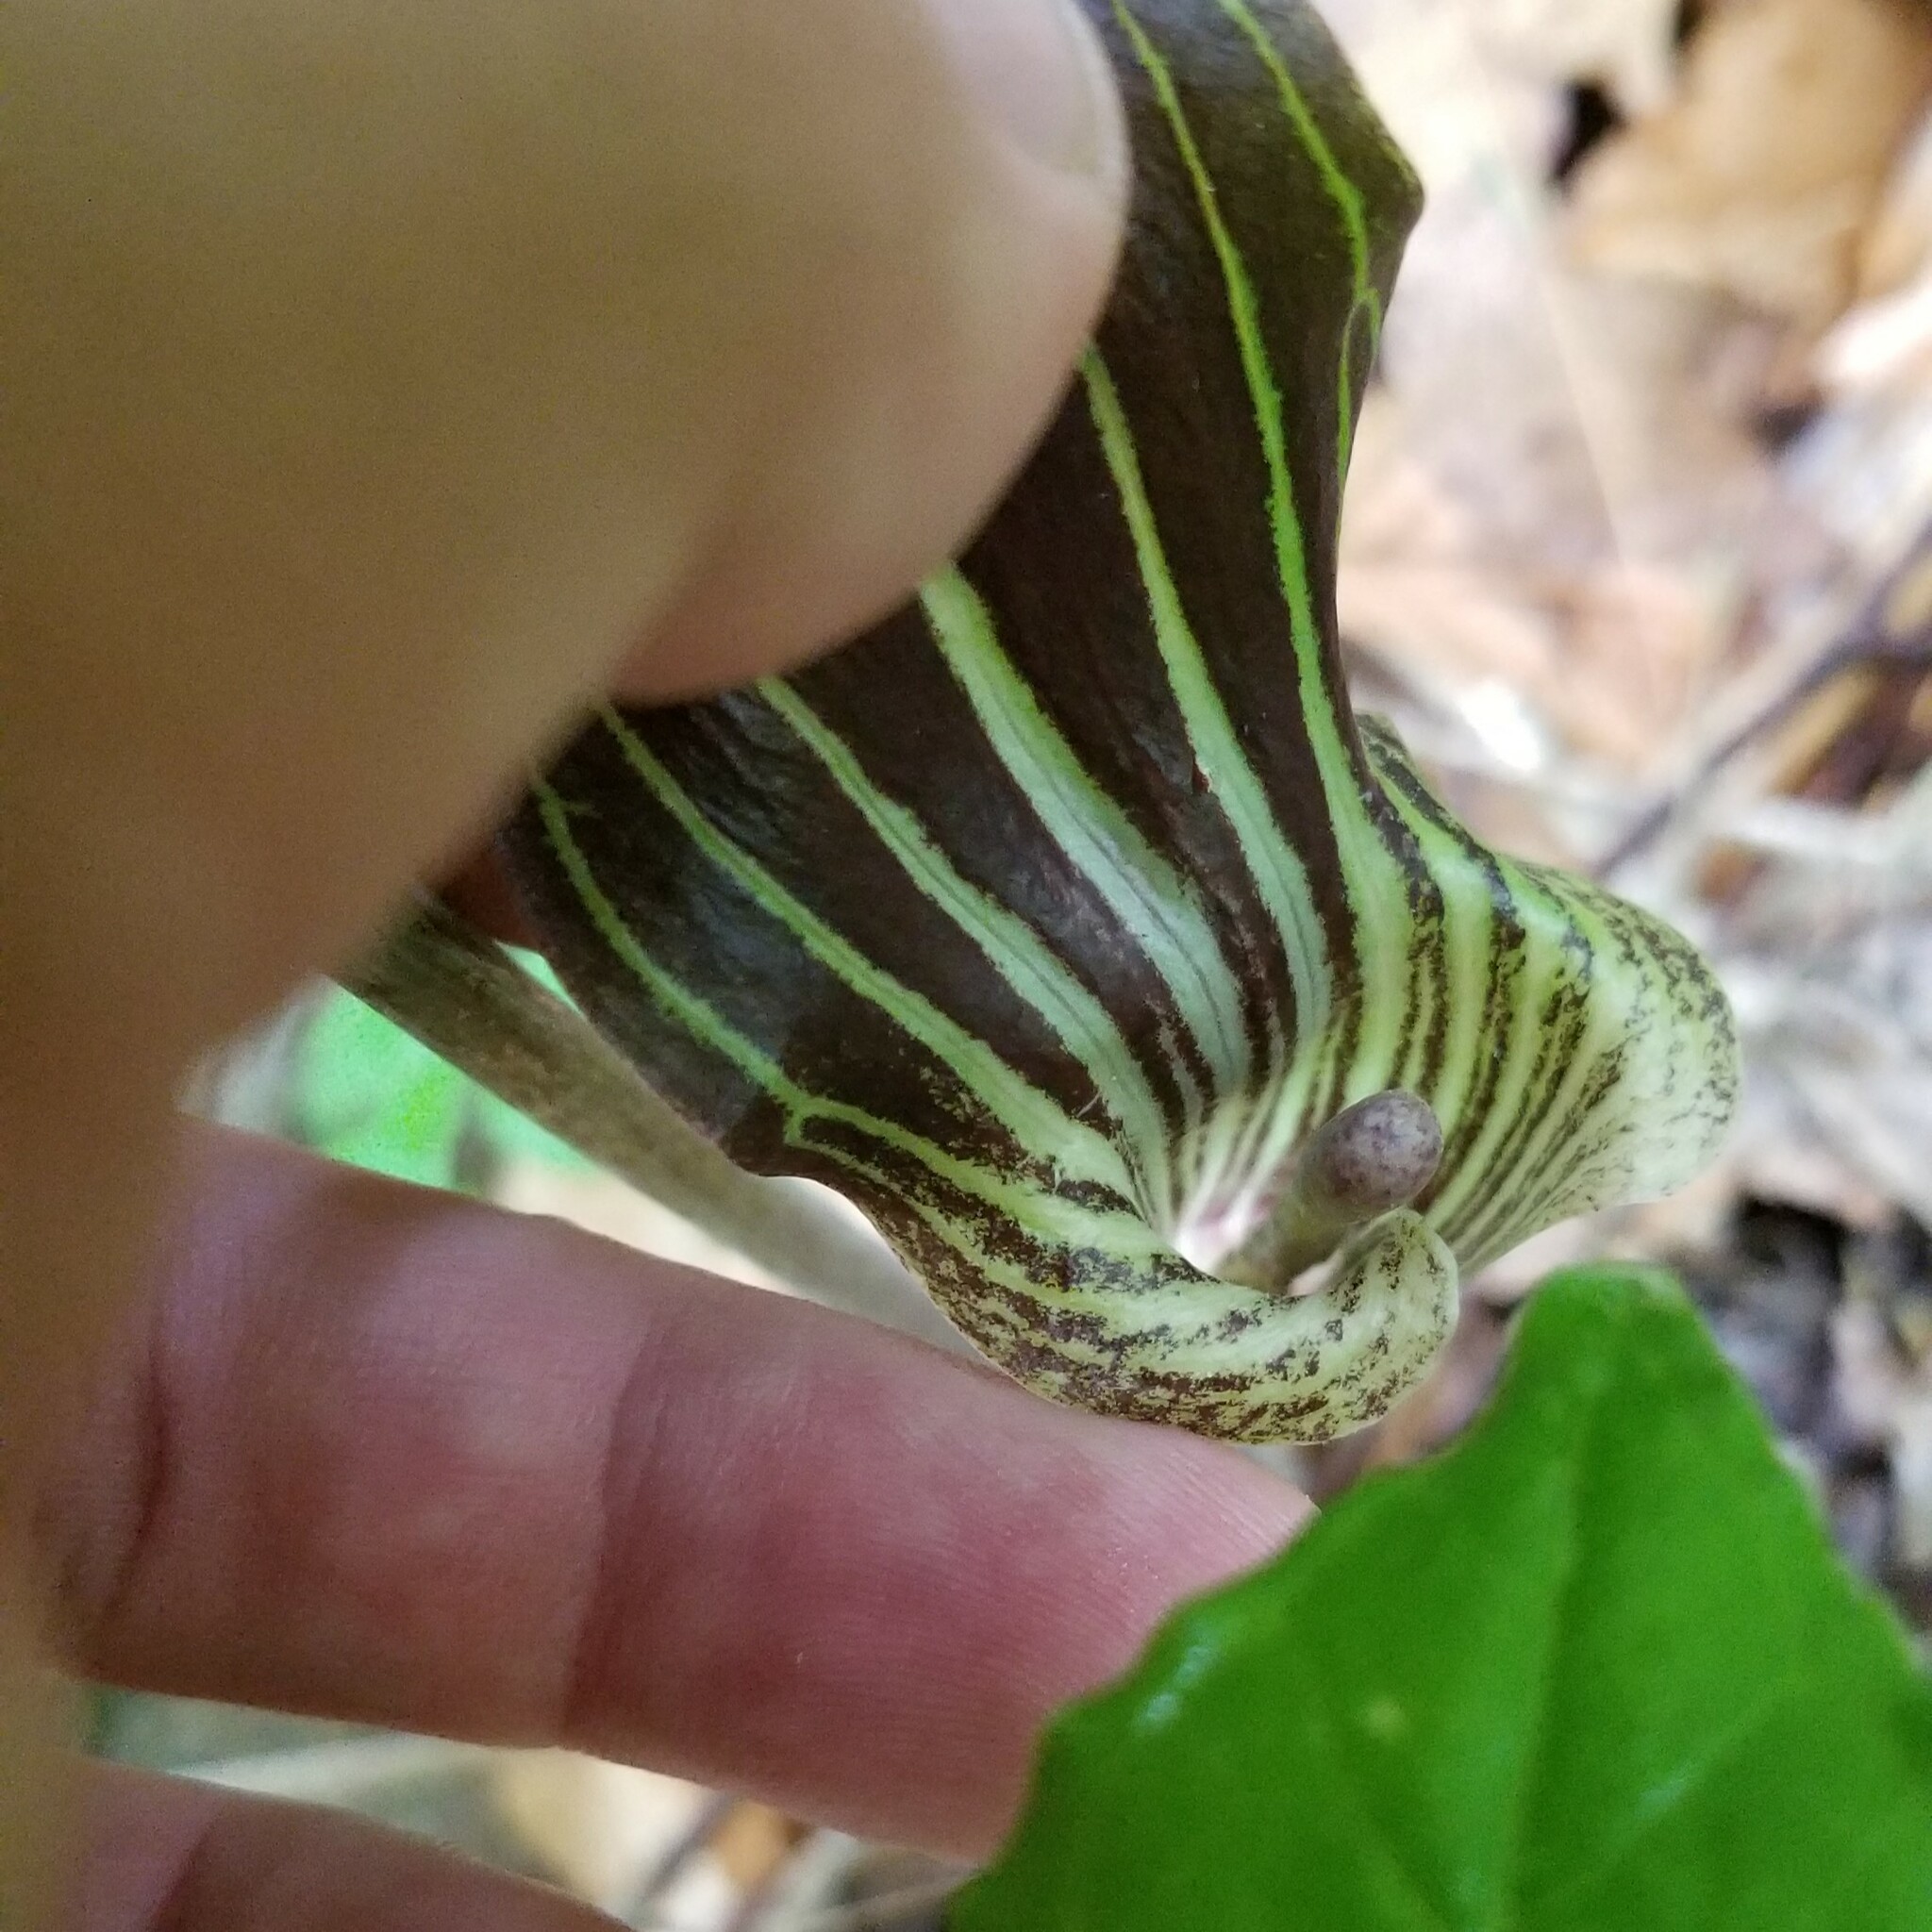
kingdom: Plantae
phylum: Tracheophyta
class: Liliopsida
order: Alismatales
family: Araceae
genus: Arisaema
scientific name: Arisaema triphyllum
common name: Jack-in-the-pulpit
